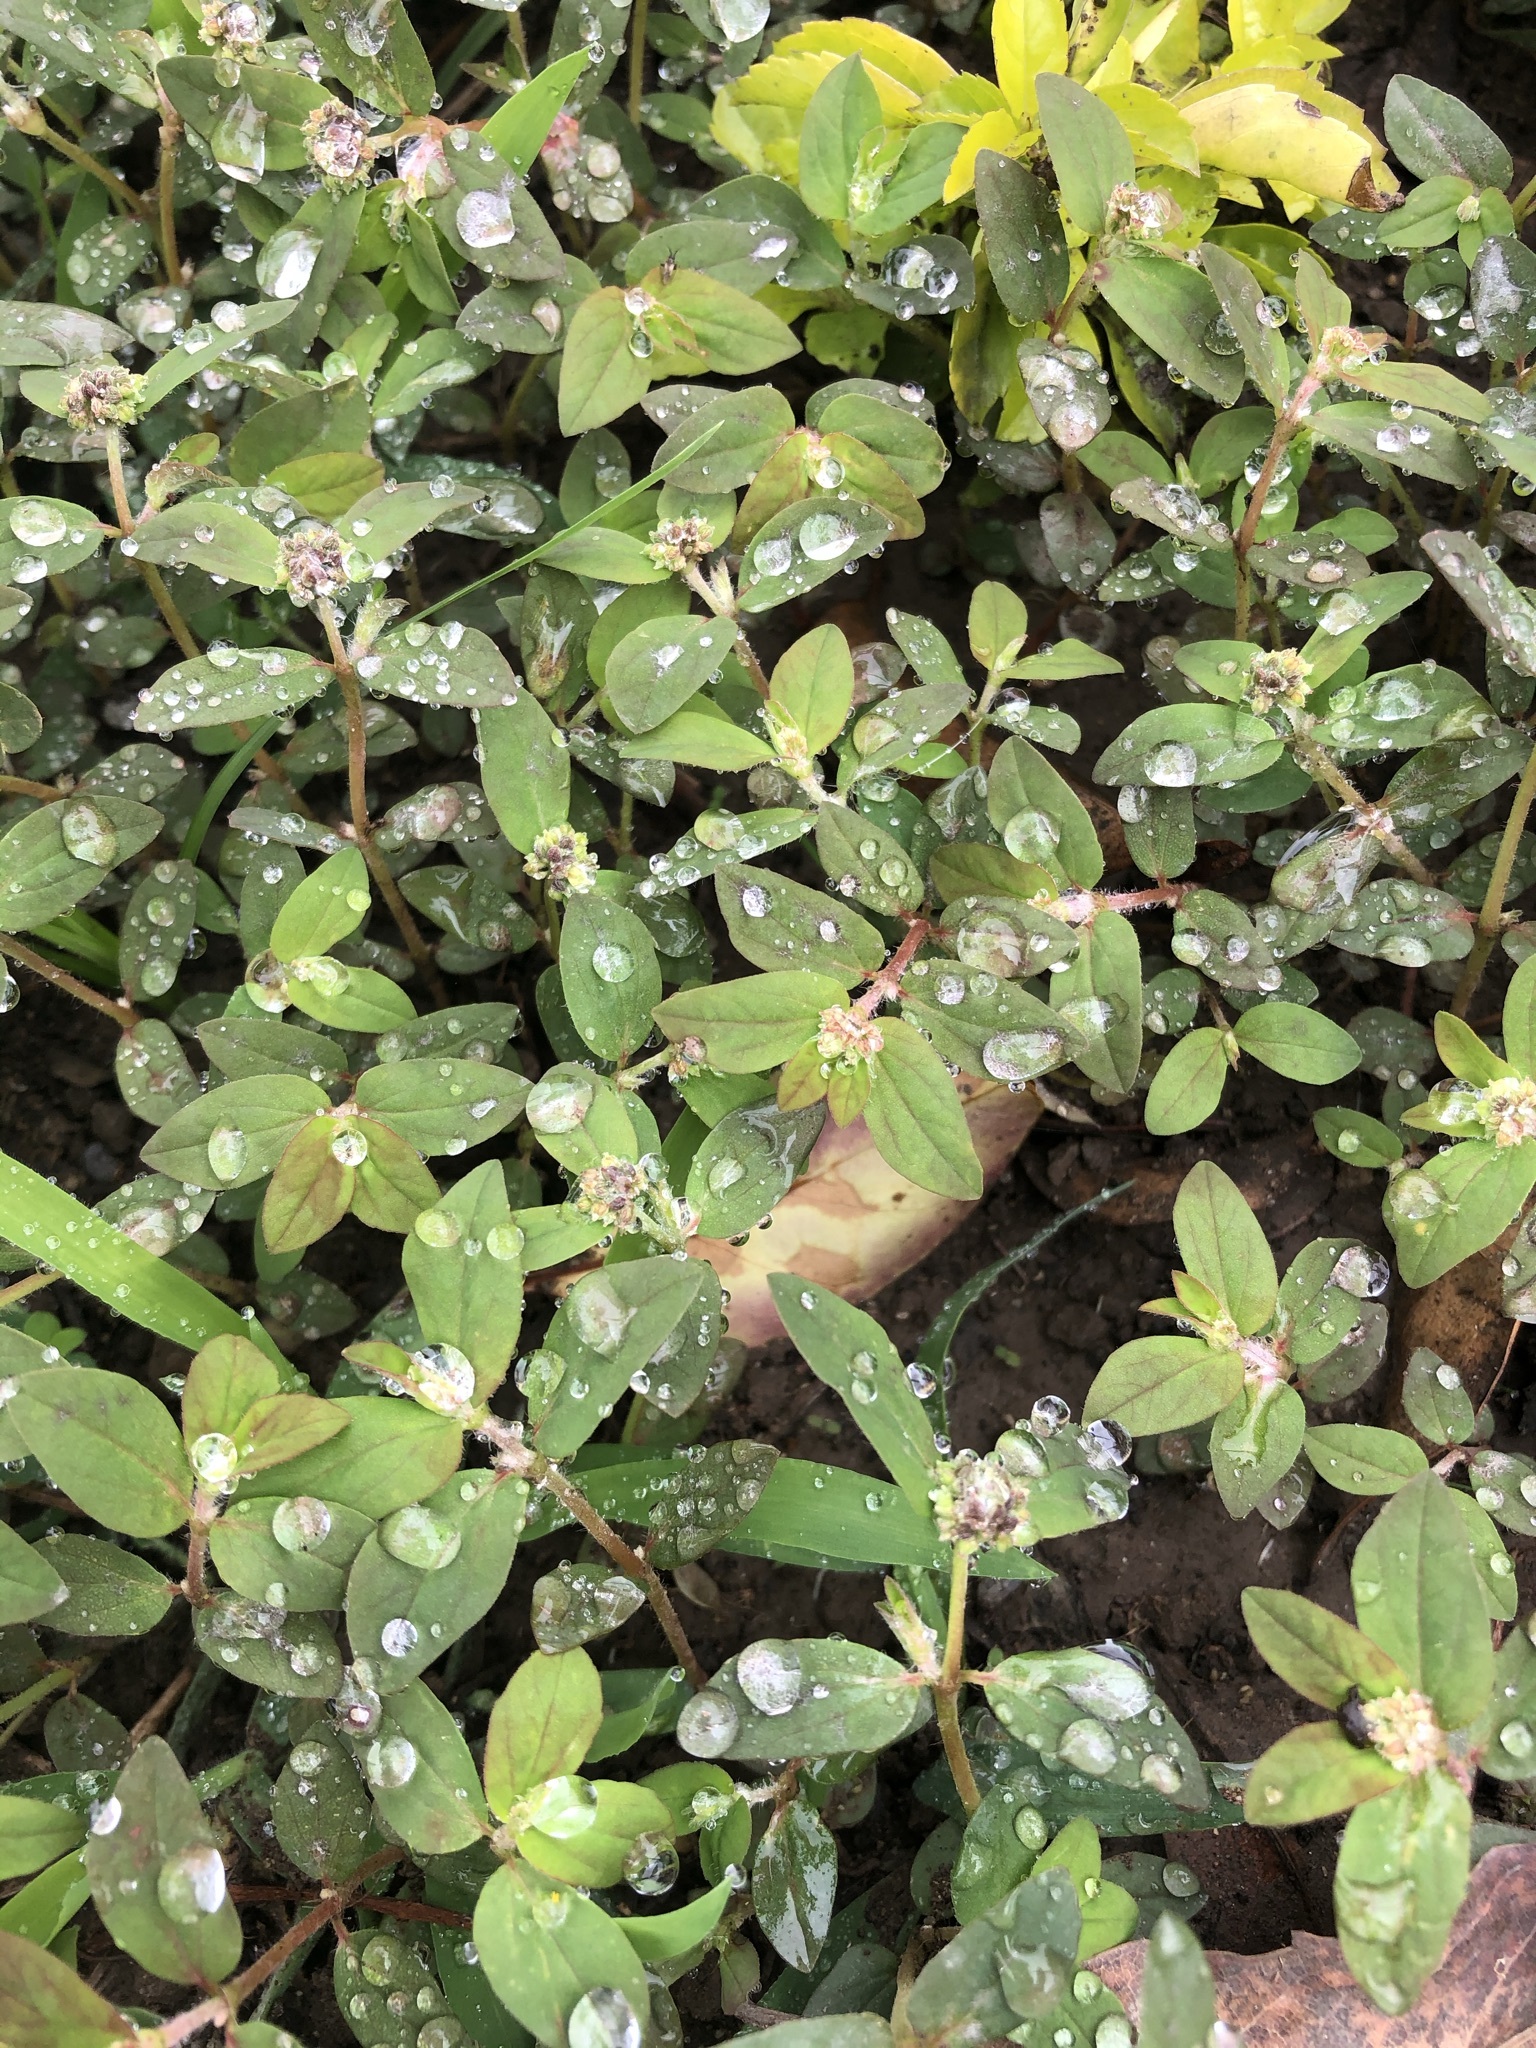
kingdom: Plantae
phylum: Tracheophyta
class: Magnoliopsida
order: Malpighiales
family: Euphorbiaceae
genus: Euphorbia
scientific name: Euphorbia ophthalmica
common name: Florida hammock sandmat
